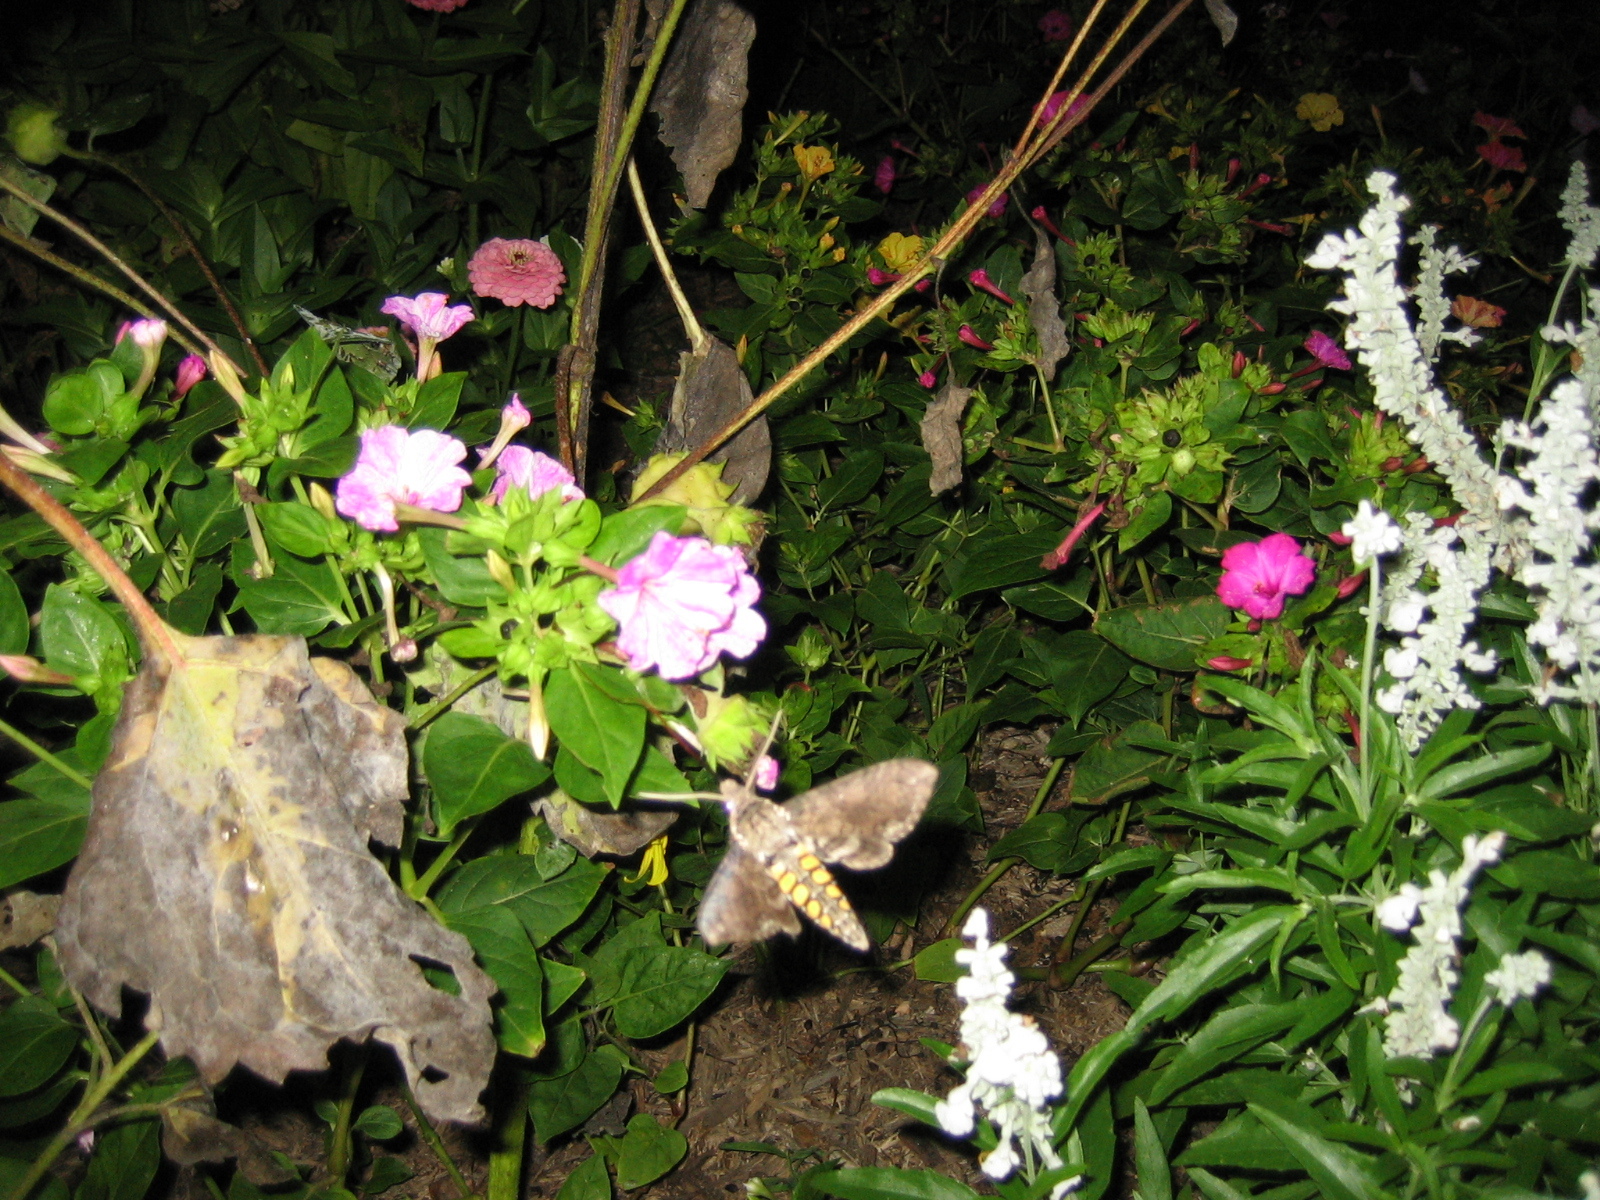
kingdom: Animalia
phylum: Arthropoda
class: Insecta
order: Lepidoptera
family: Sphingidae
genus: Manduca
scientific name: Manduca sexta
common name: Carolina sphinx
